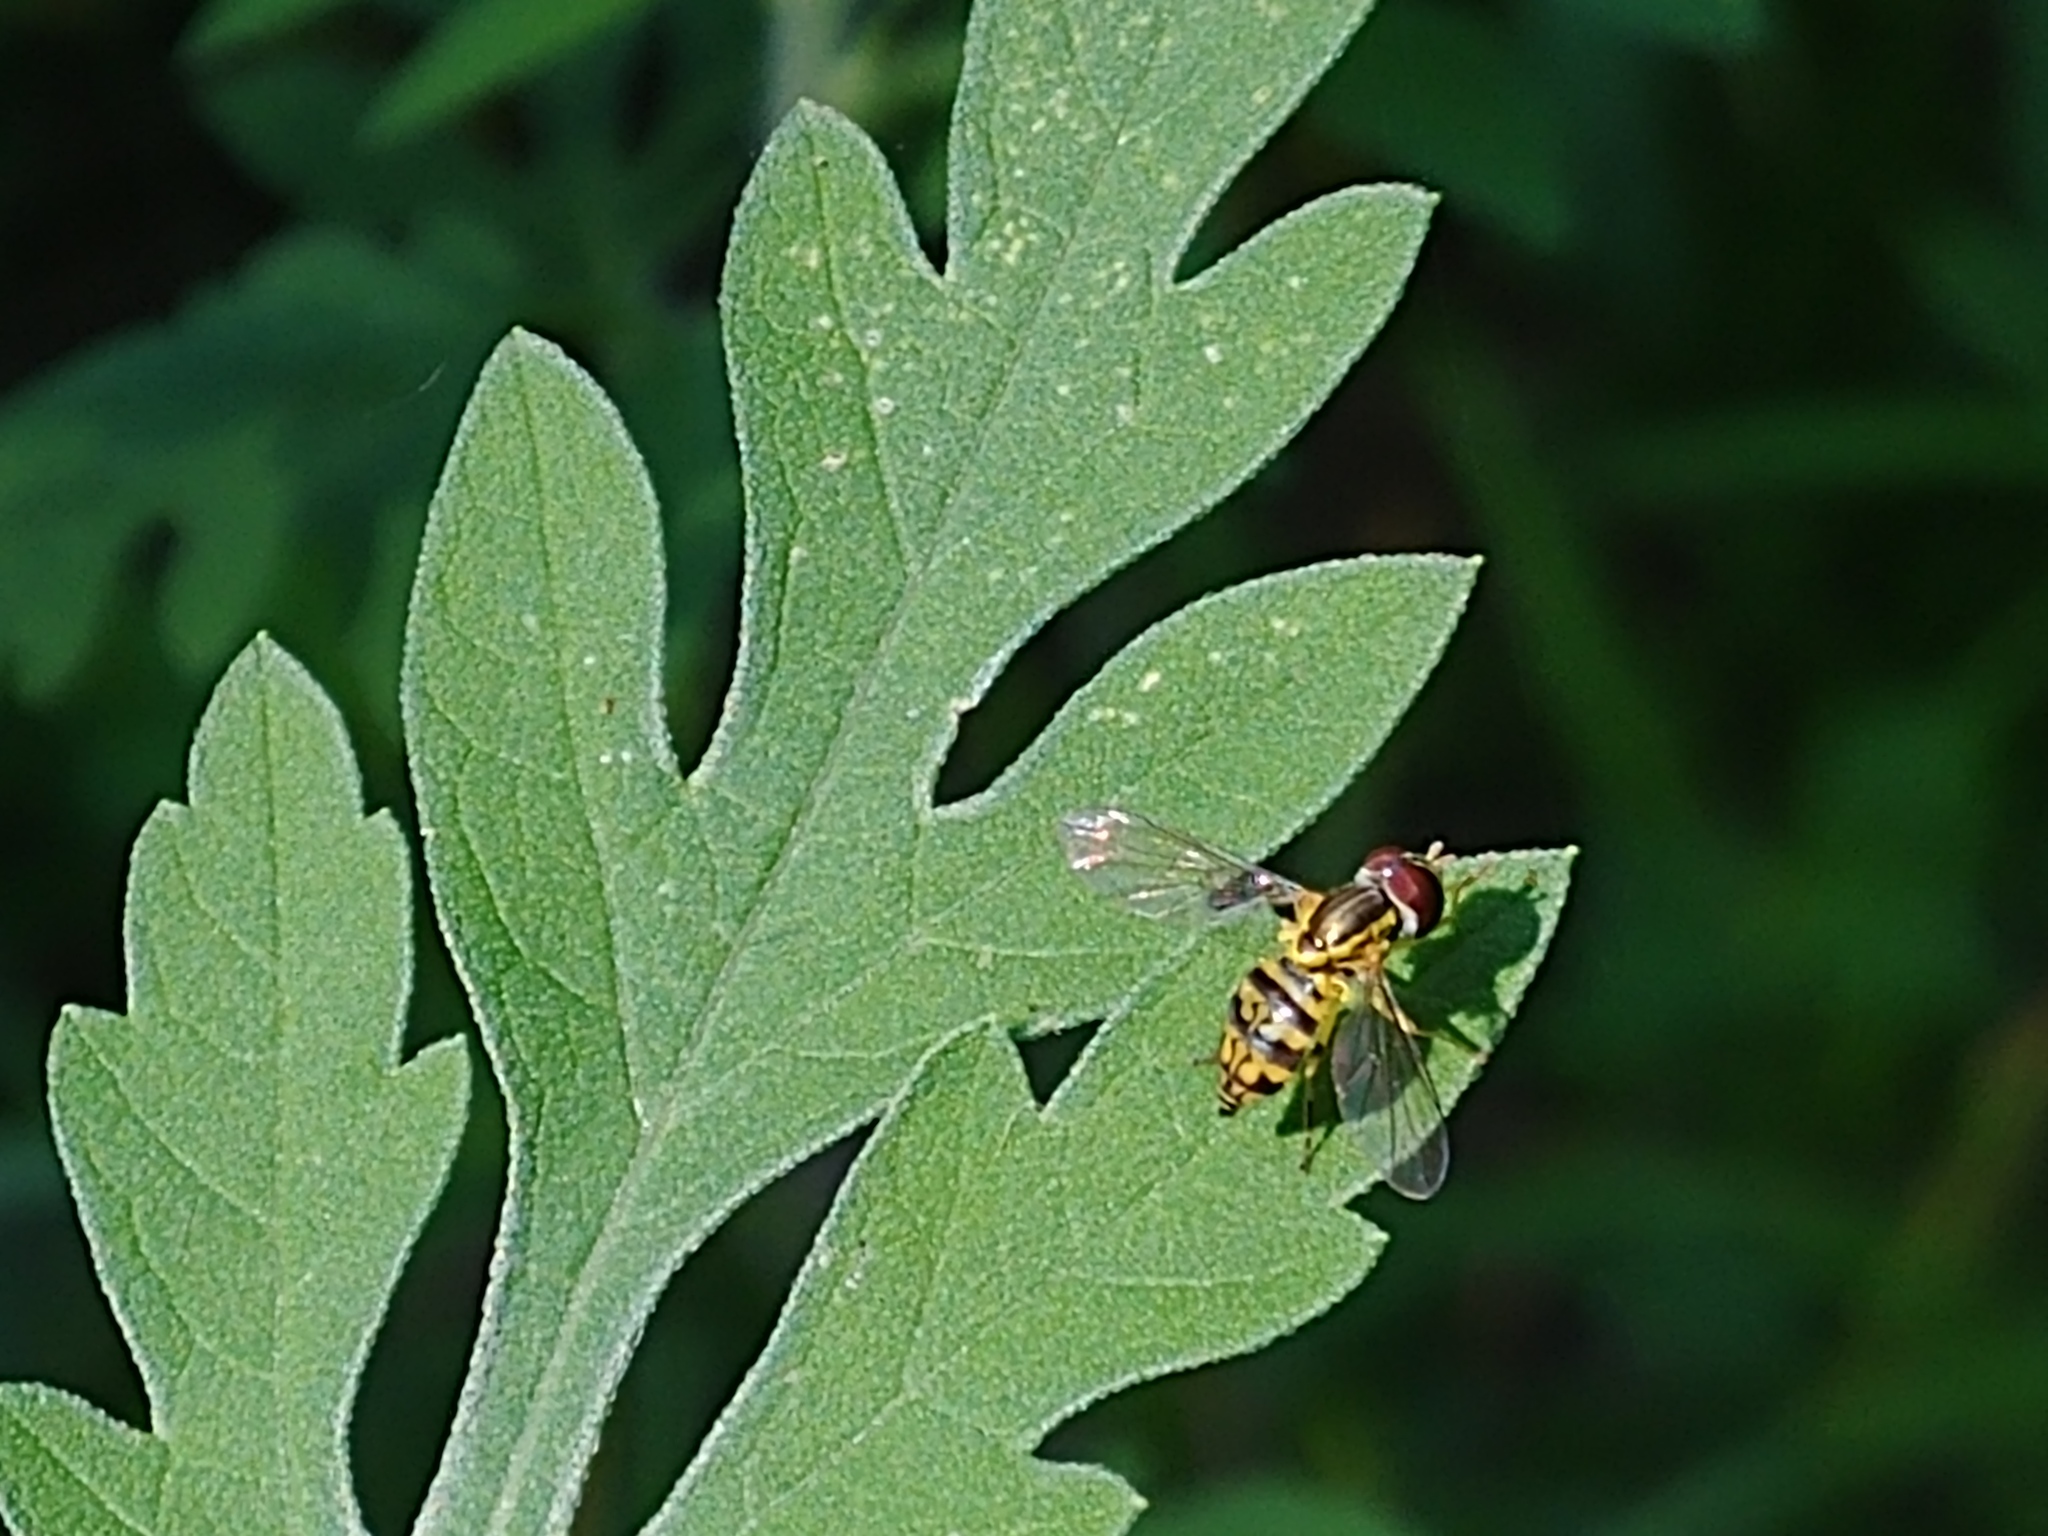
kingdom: Animalia
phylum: Arthropoda
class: Insecta
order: Diptera
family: Syrphidae
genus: Toxomerus
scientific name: Toxomerus geminatus
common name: Eastern calligrapher
